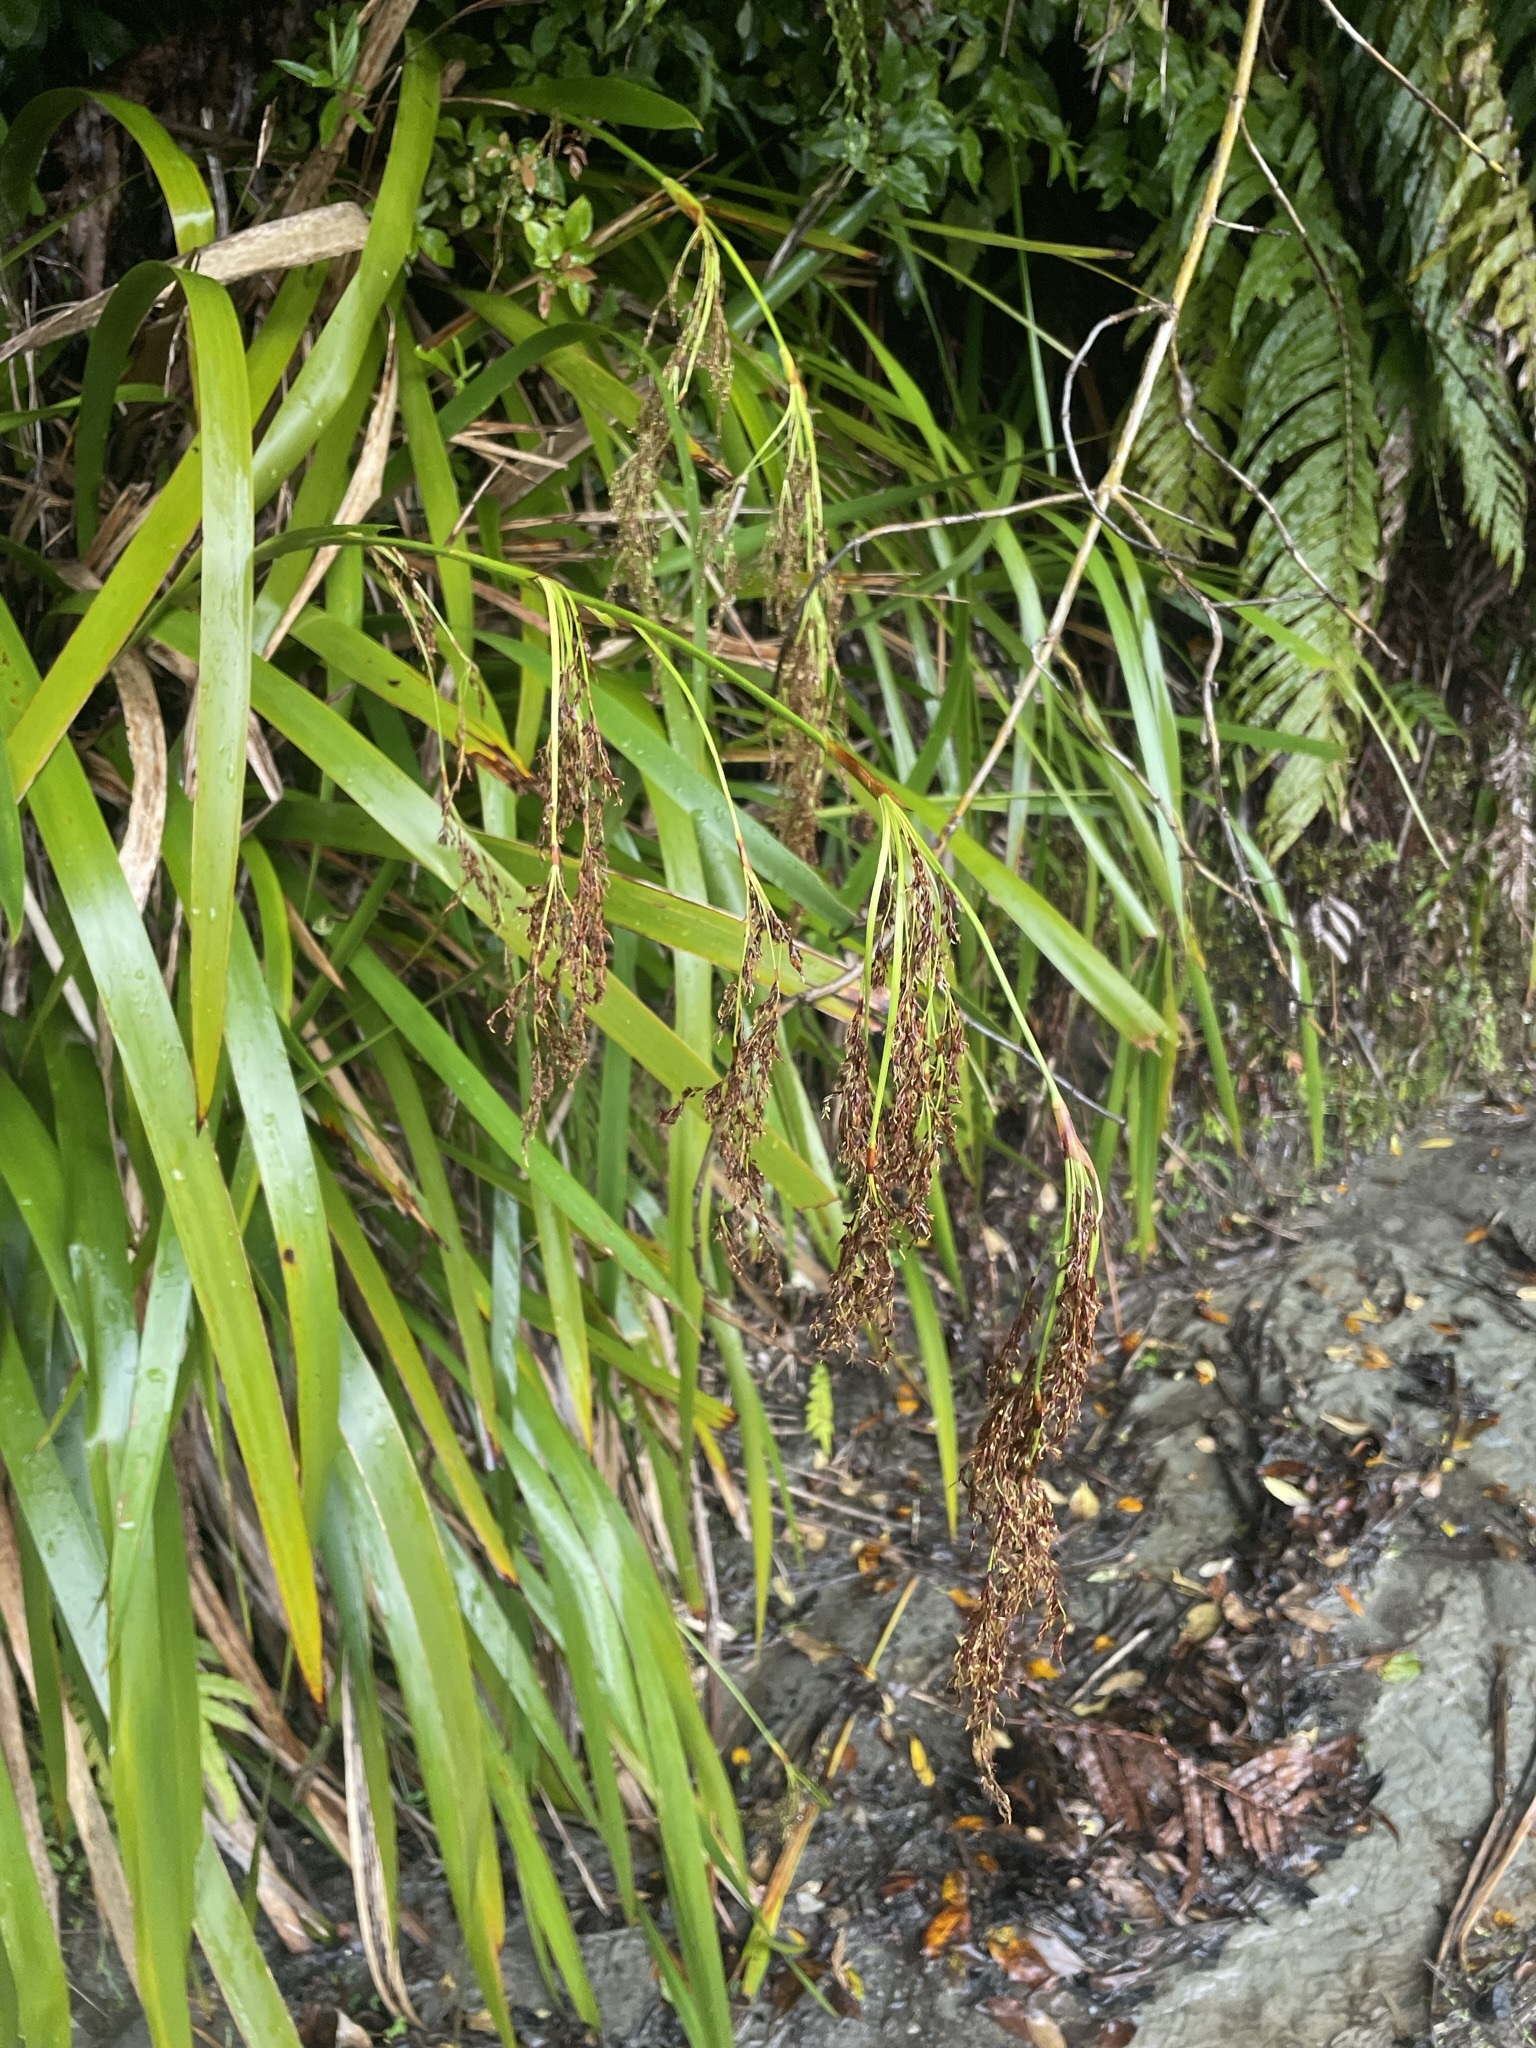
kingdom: Plantae
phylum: Tracheophyta
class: Liliopsida
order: Poales
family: Cyperaceae
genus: Machaerina
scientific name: Machaerina sinclairii
